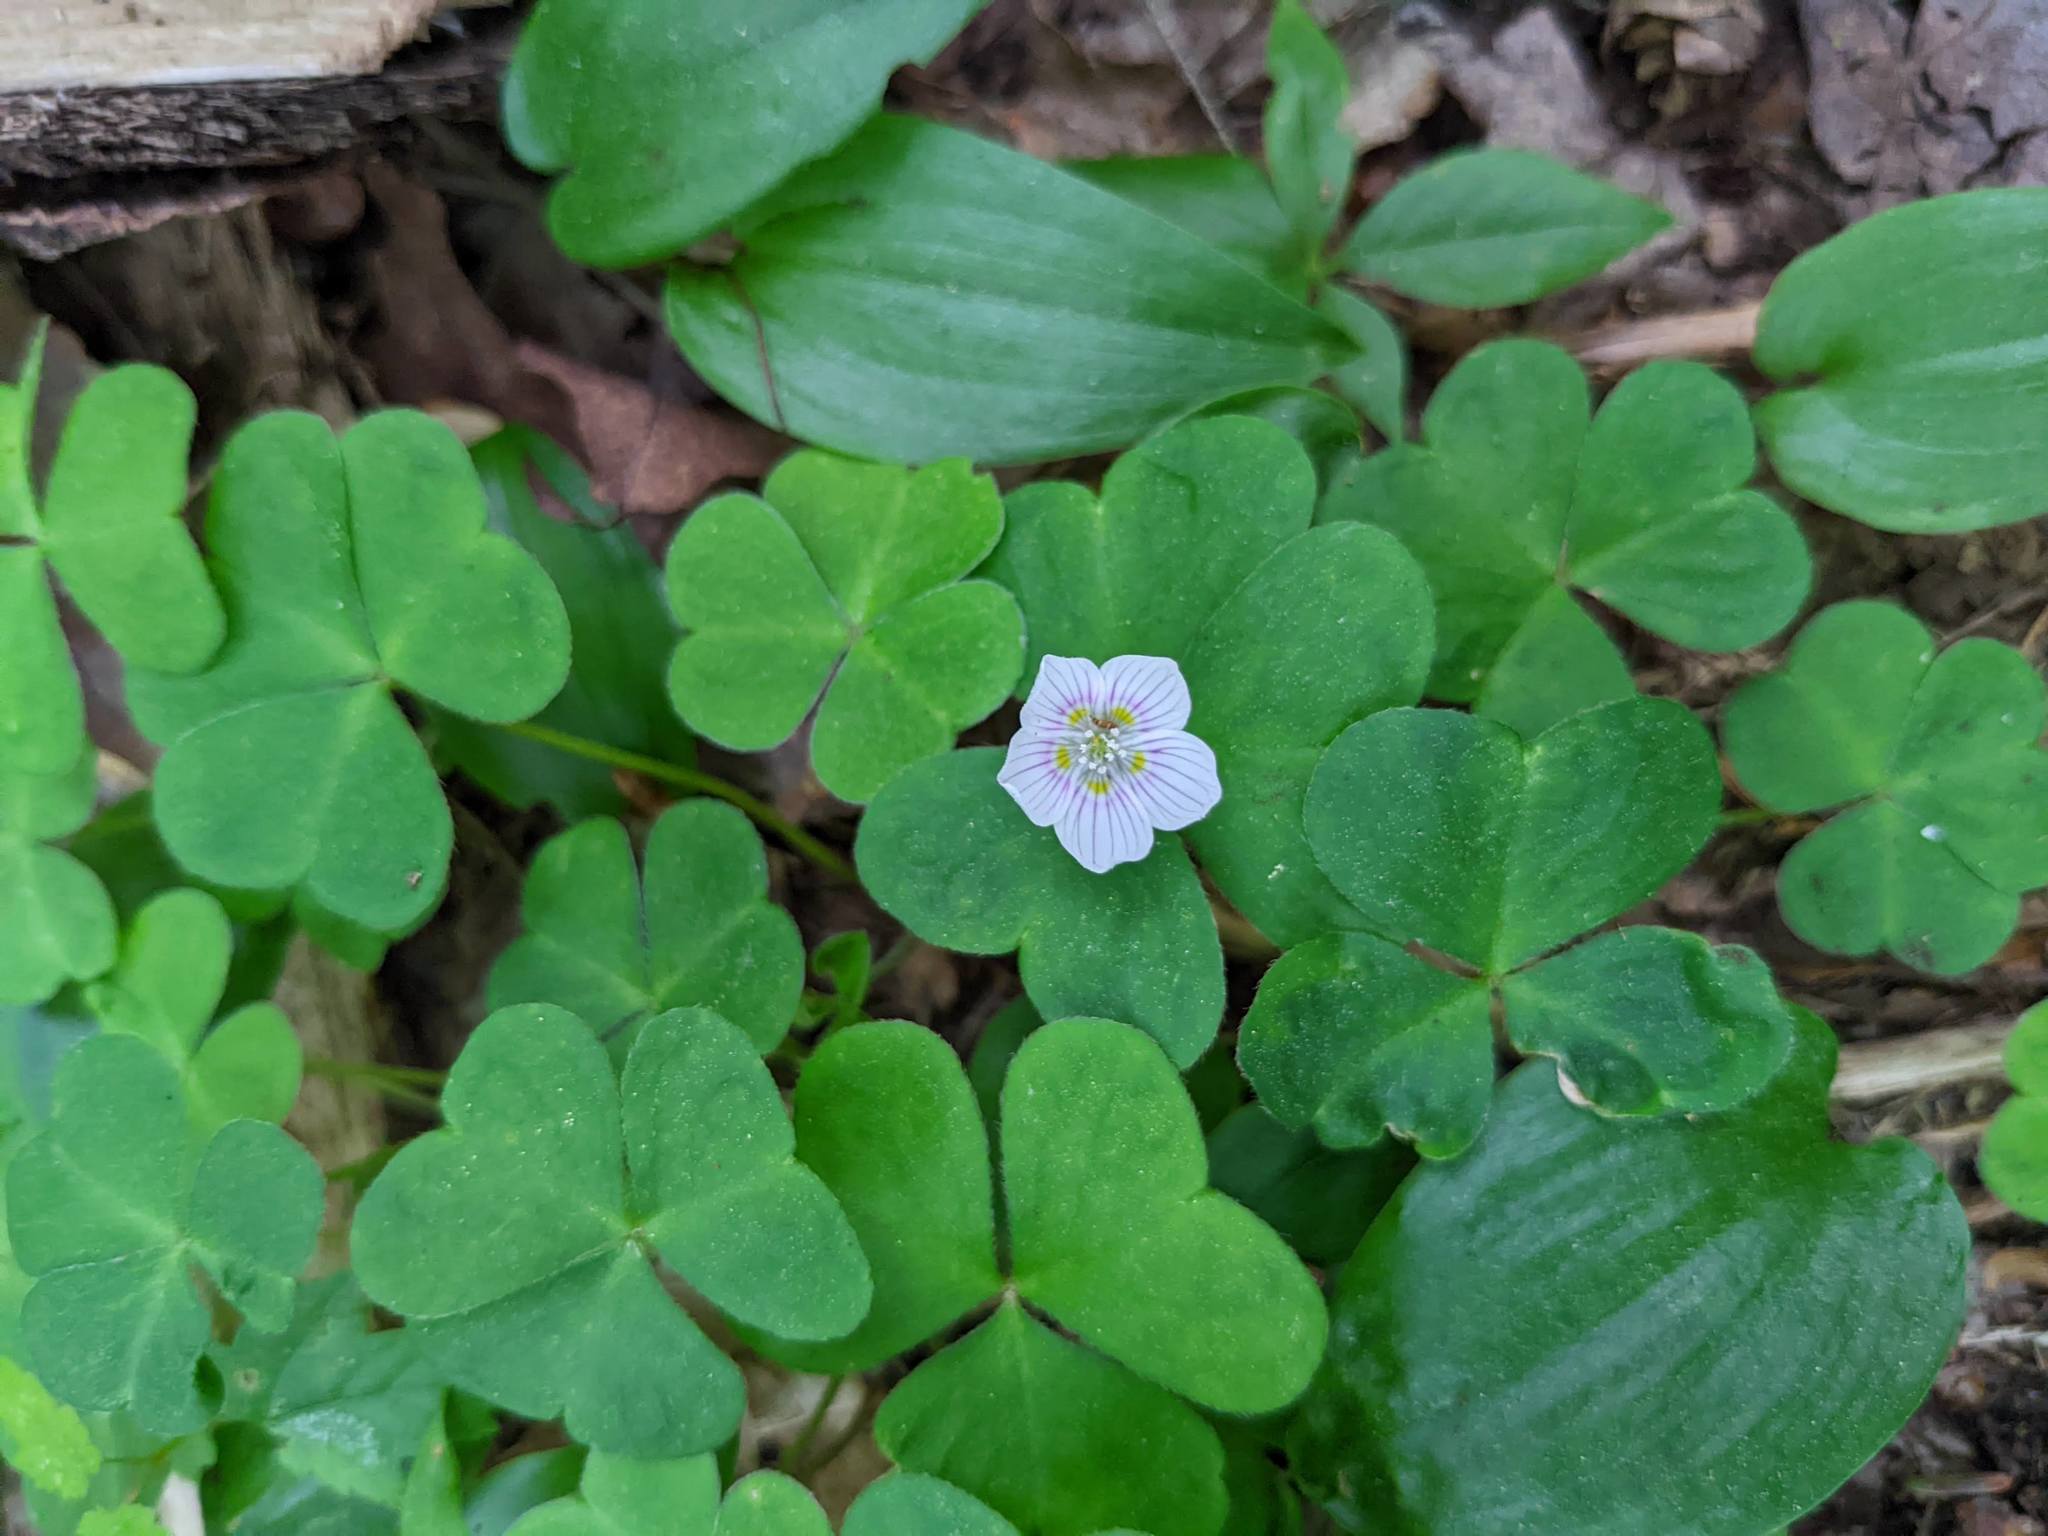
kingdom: Plantae
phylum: Tracheophyta
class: Magnoliopsida
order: Oxalidales
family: Oxalidaceae
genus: Oxalis
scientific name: Oxalis montana
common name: American wood-sorrel
